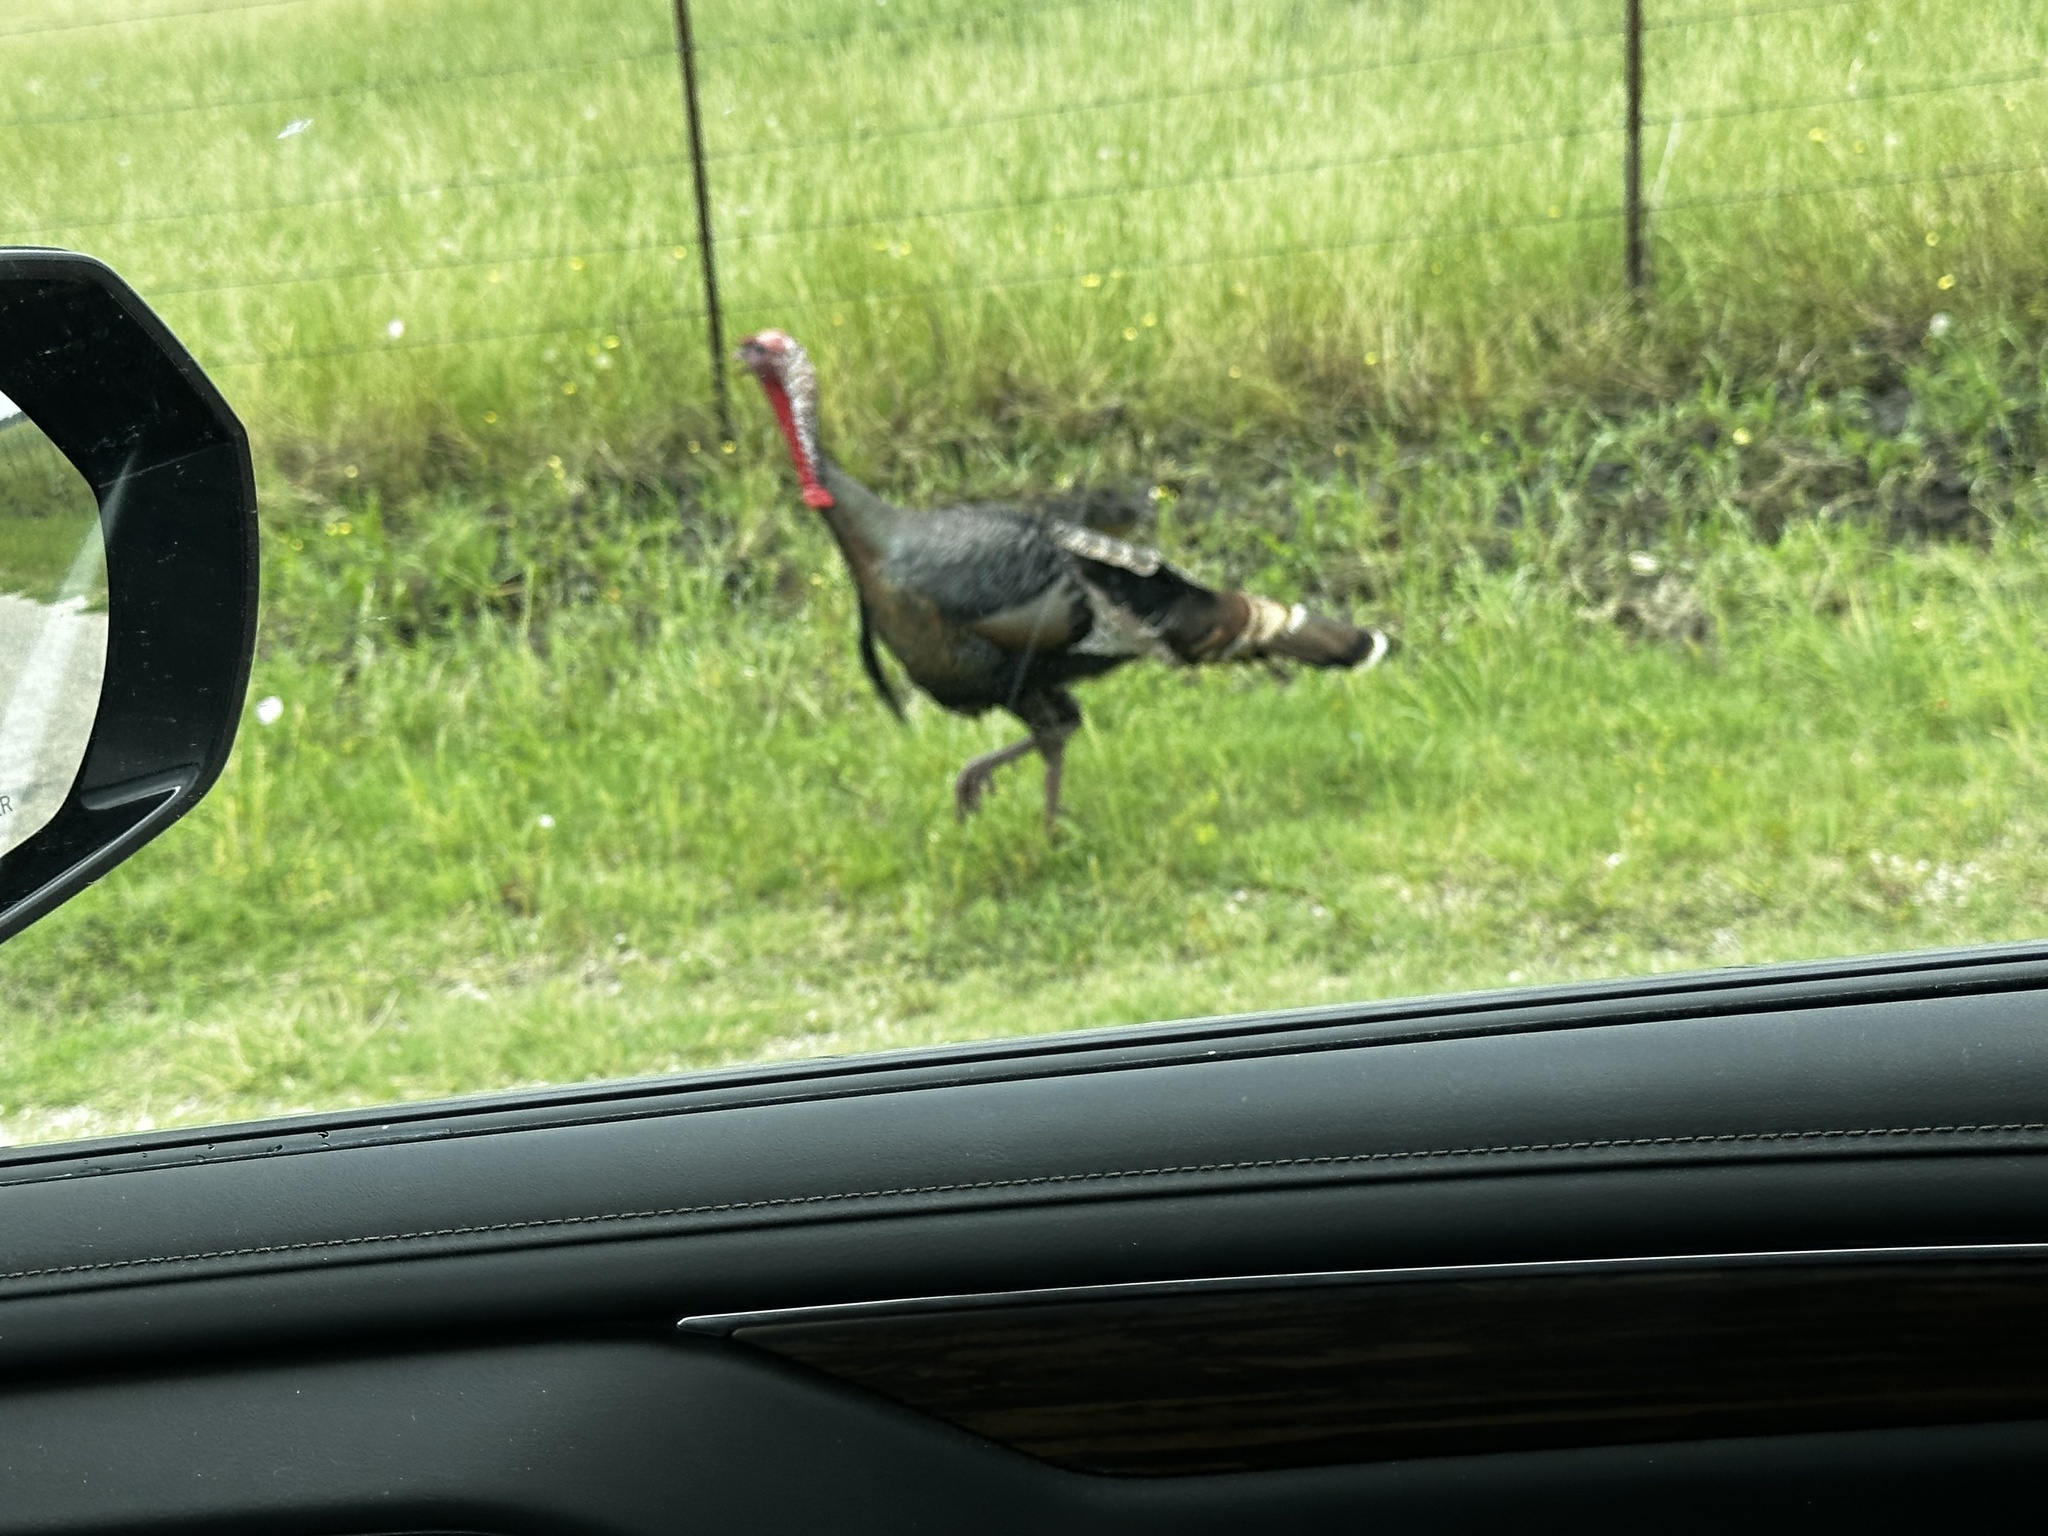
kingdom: Animalia
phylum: Chordata
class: Aves
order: Galliformes
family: Phasianidae
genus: Meleagris
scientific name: Meleagris gallopavo
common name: Wild turkey
